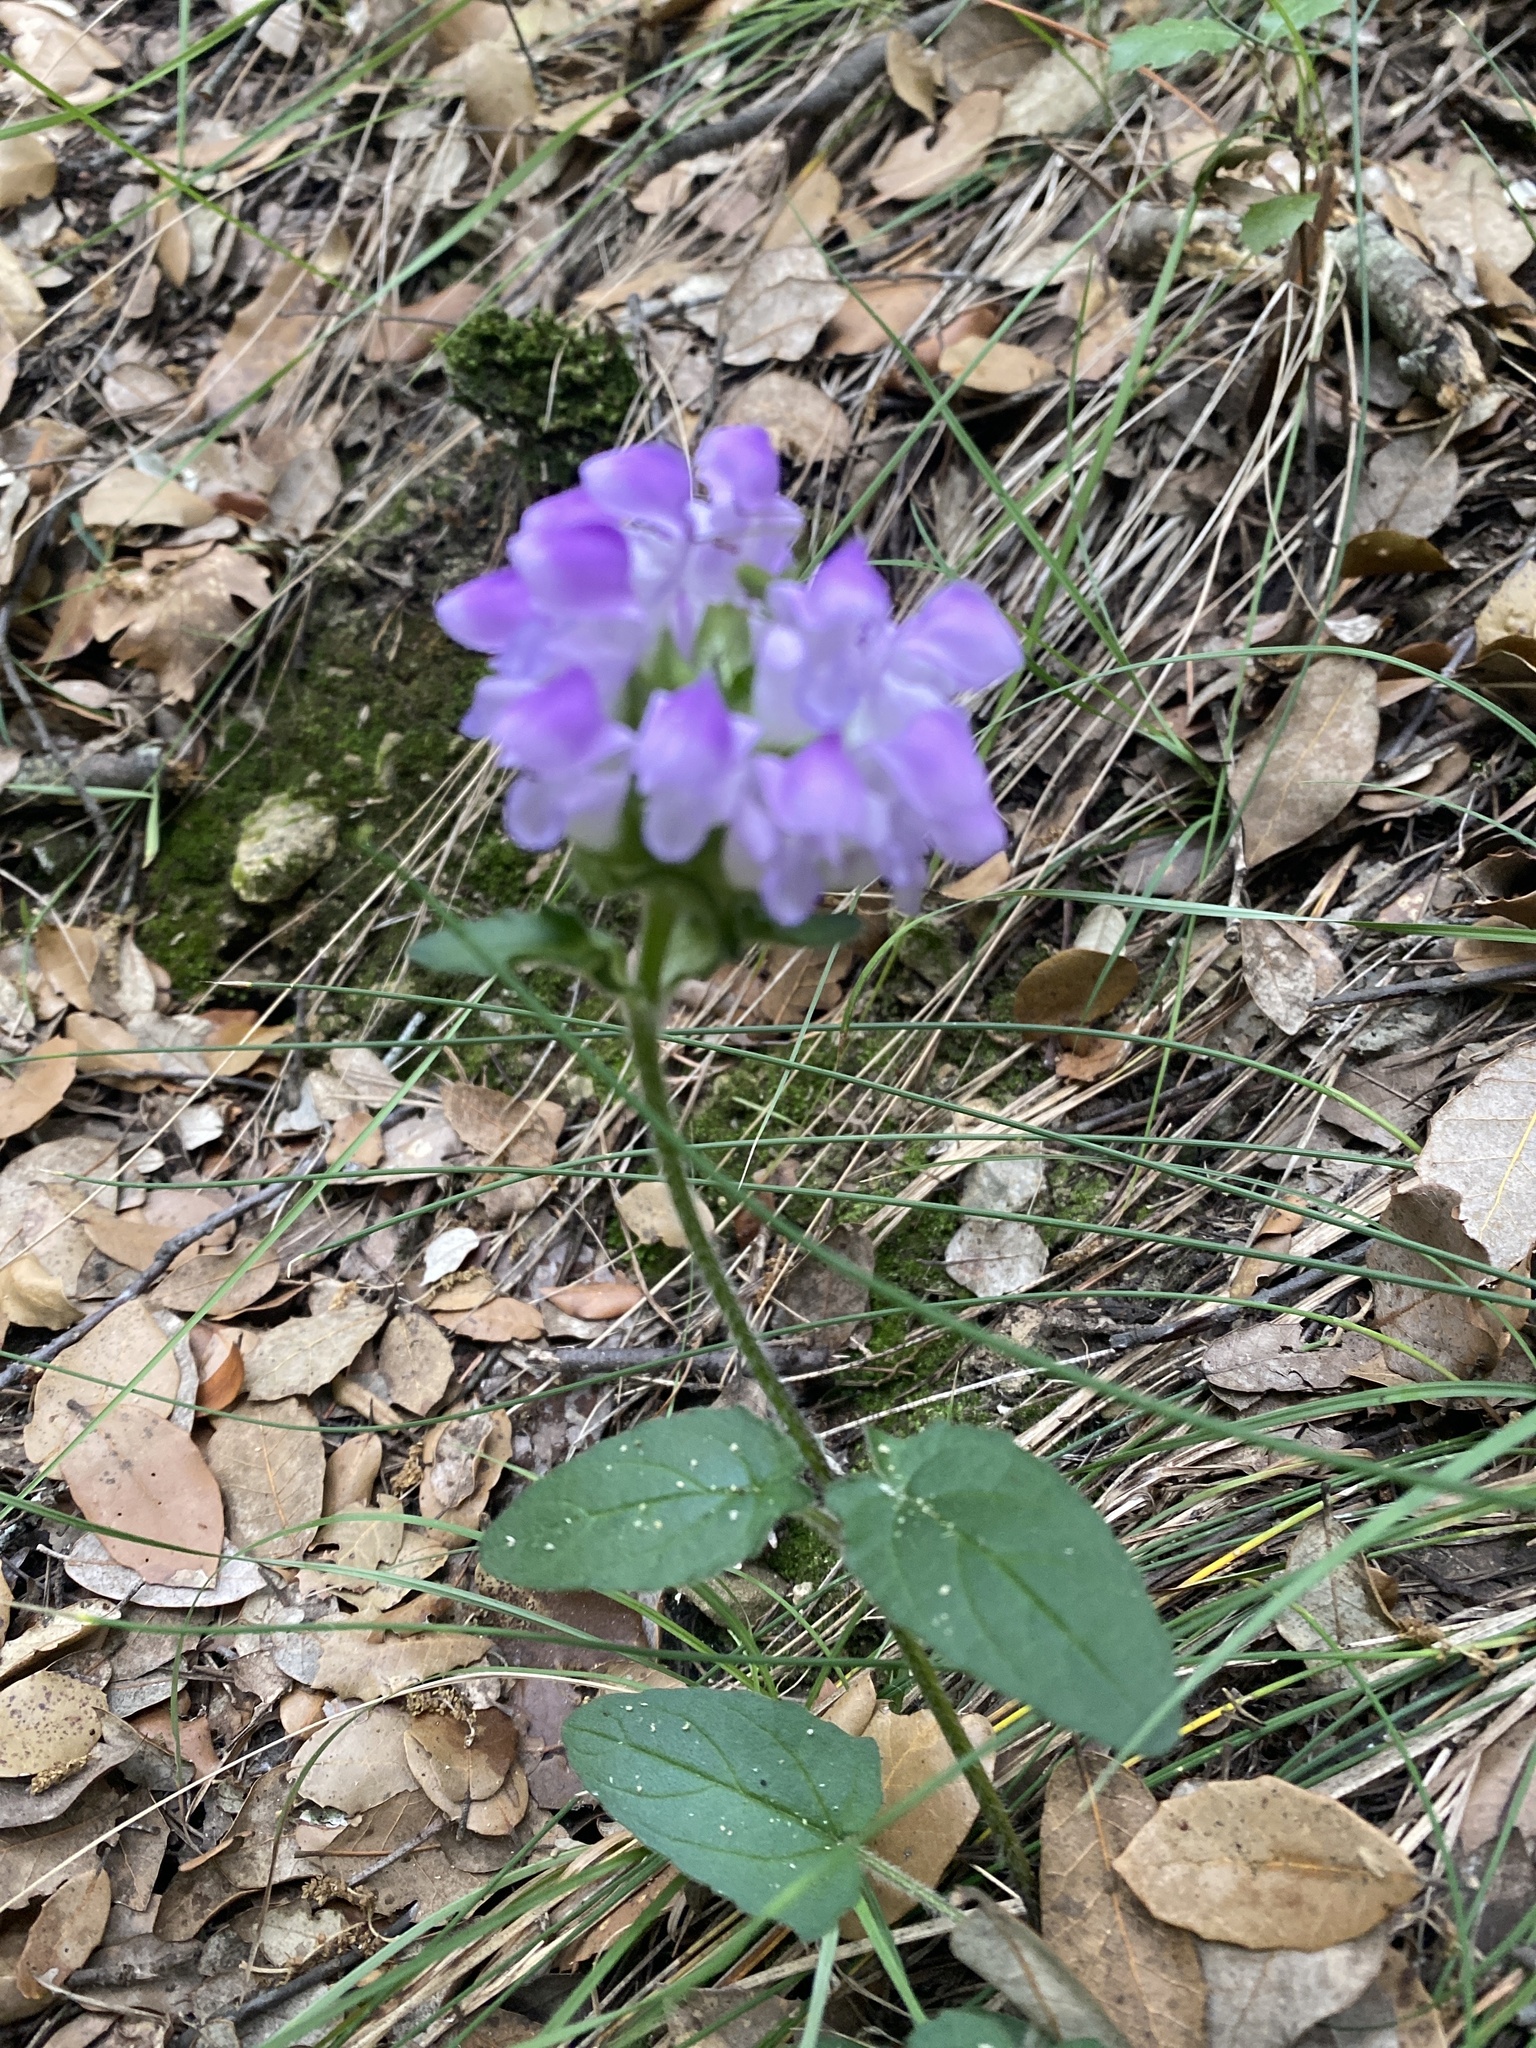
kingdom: Plantae
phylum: Tracheophyta
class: Magnoliopsida
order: Lamiales
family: Lamiaceae
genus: Prunella
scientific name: Prunella grandiflora
